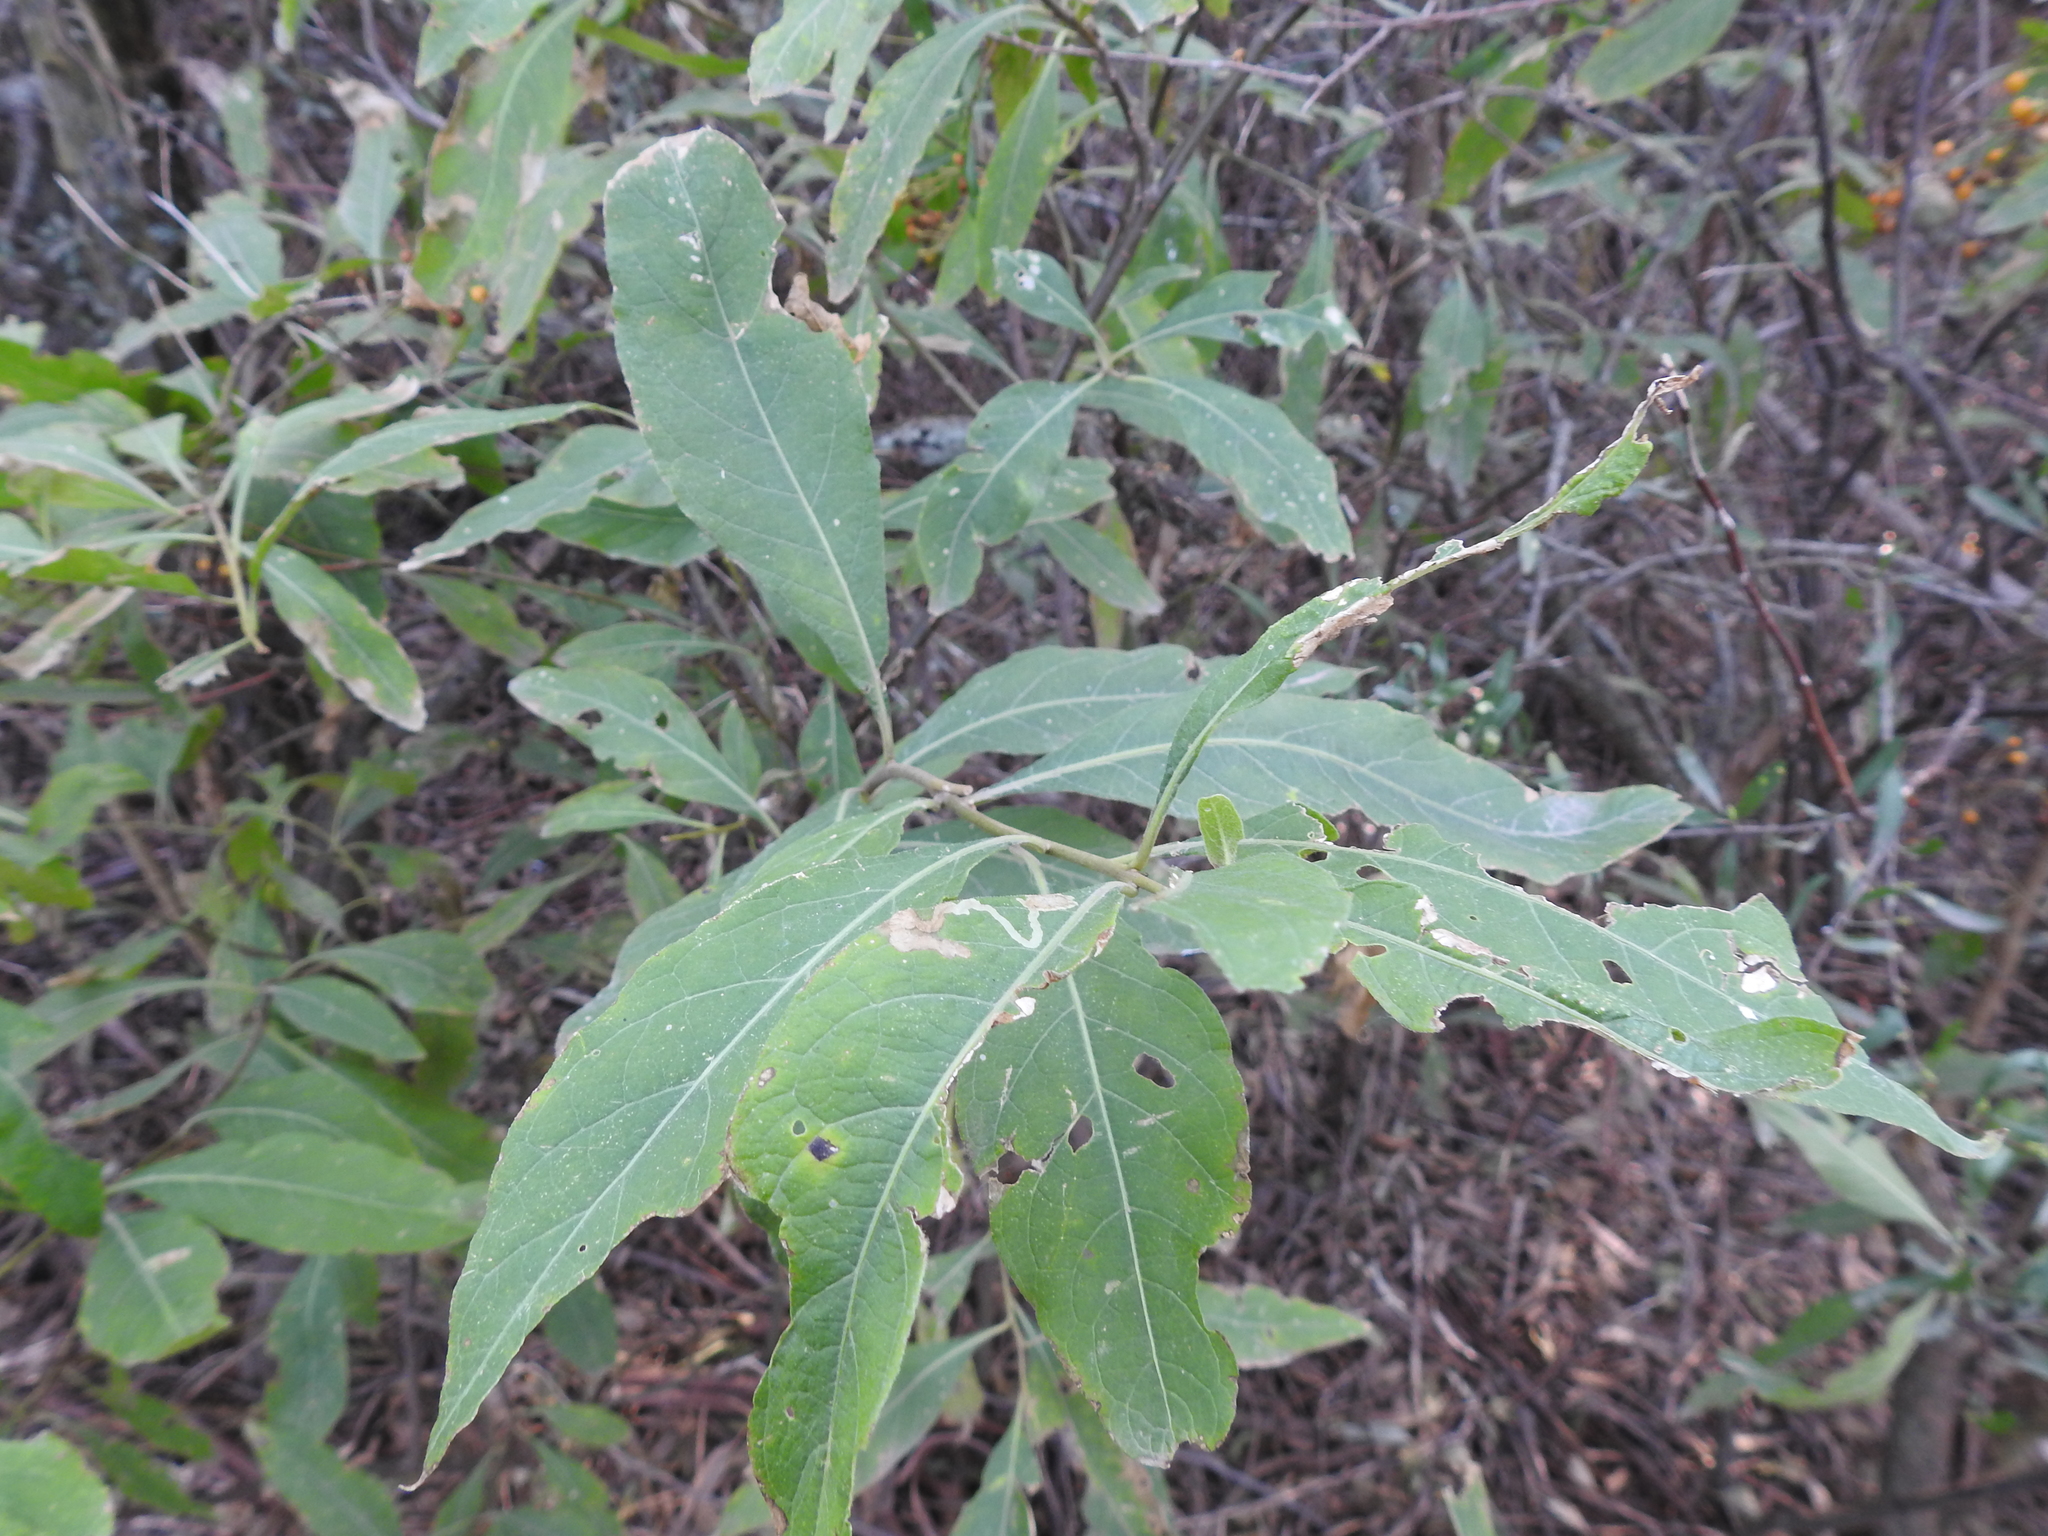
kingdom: Plantae
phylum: Tracheophyta
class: Magnoliopsida
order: Solanales
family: Solanaceae
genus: Solanum
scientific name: Solanum argentinum
